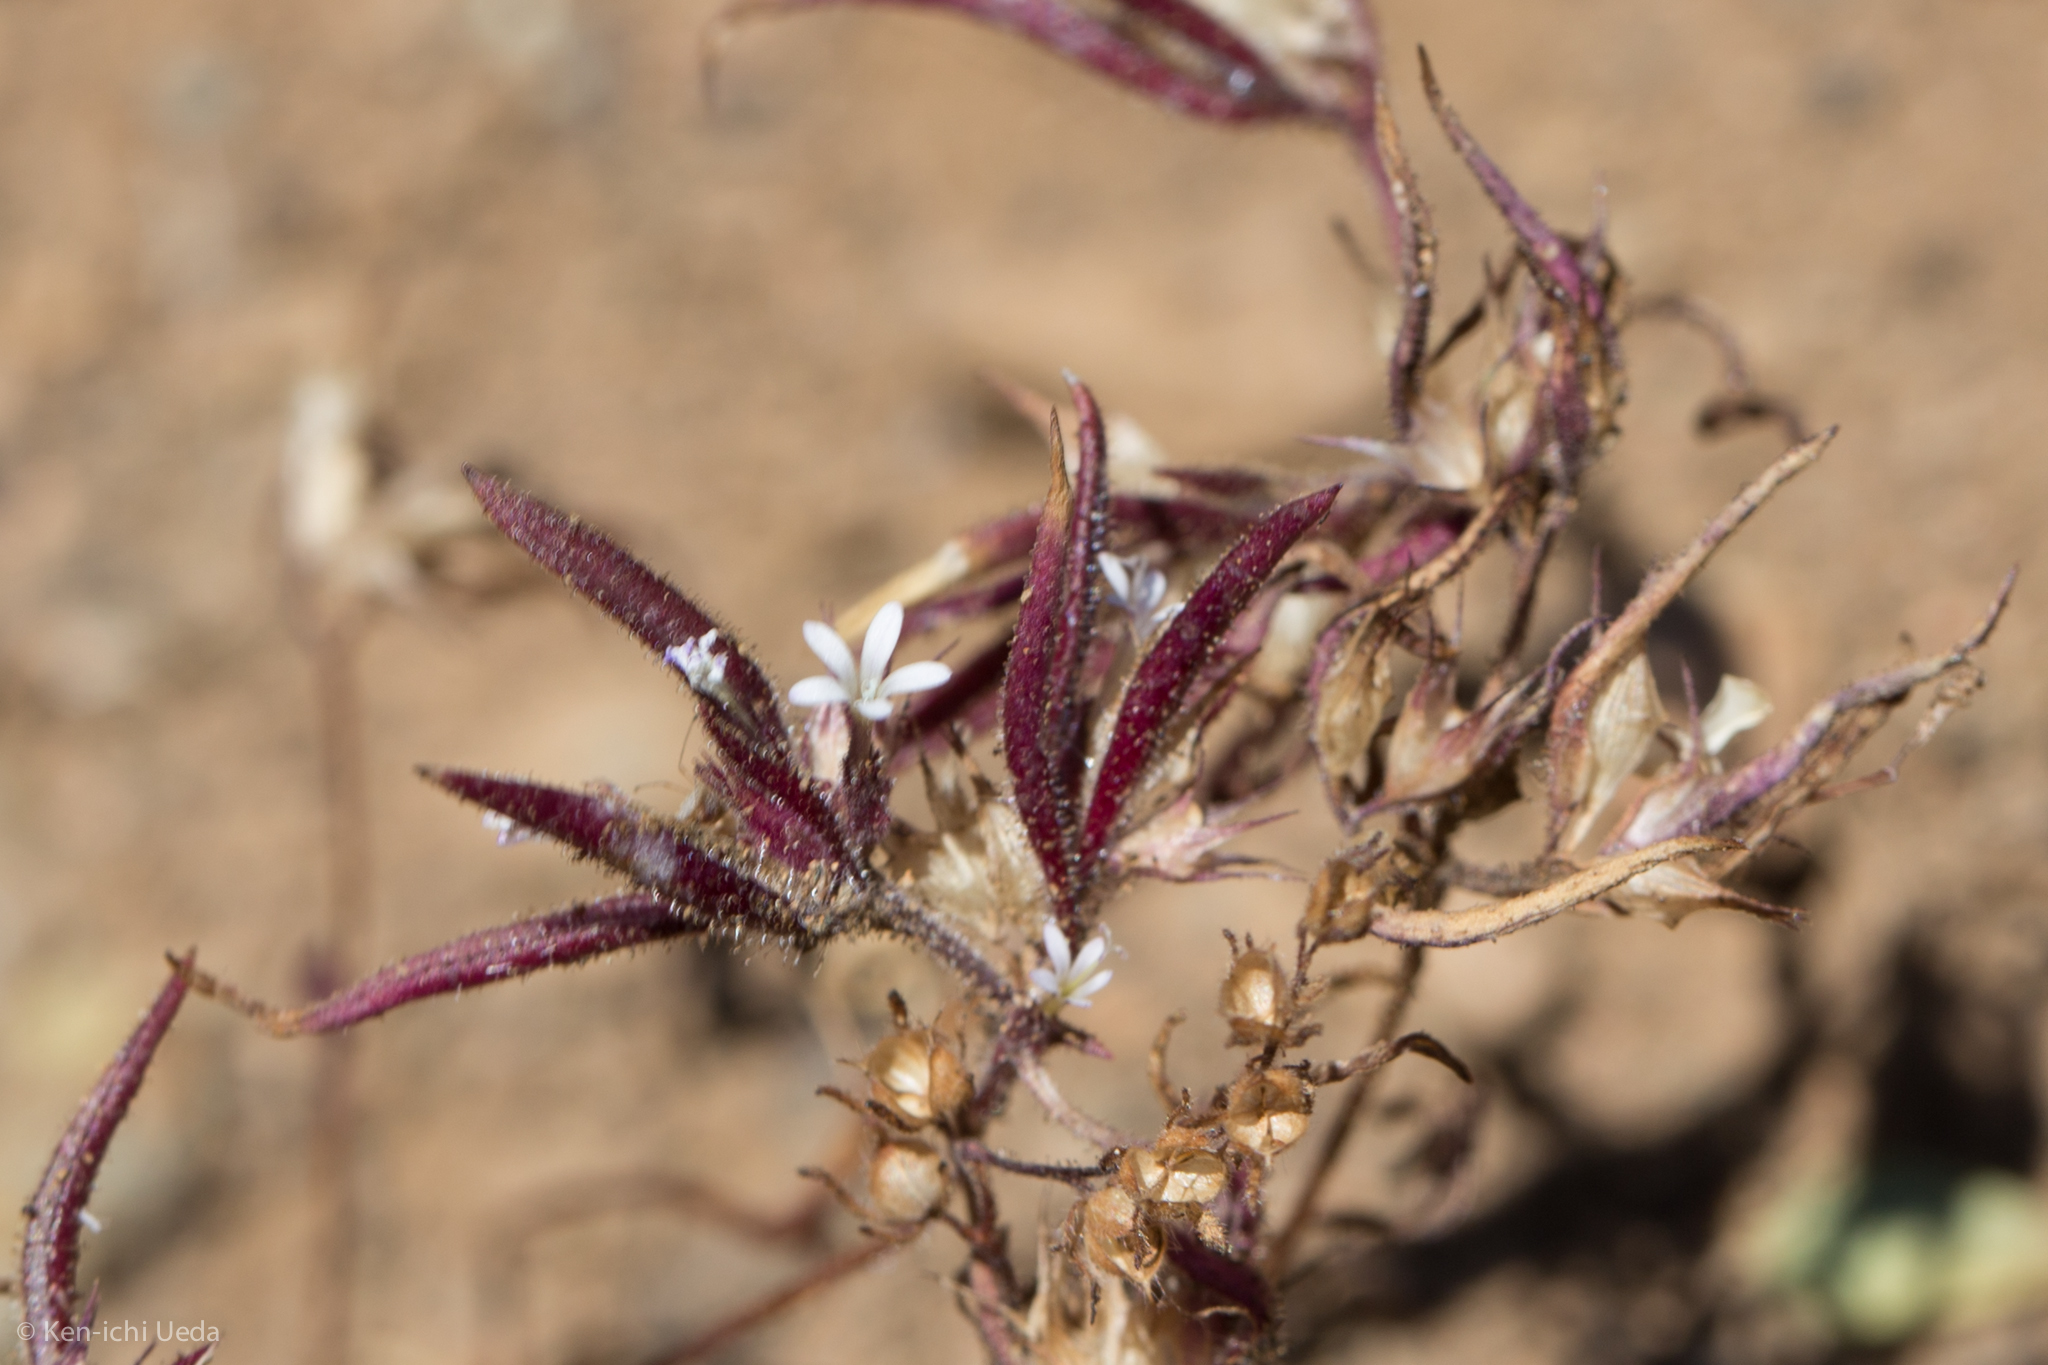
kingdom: Plantae
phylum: Tracheophyta
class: Magnoliopsida
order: Ericales
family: Polemoniaceae
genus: Collomia
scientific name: Collomia tinctoria
